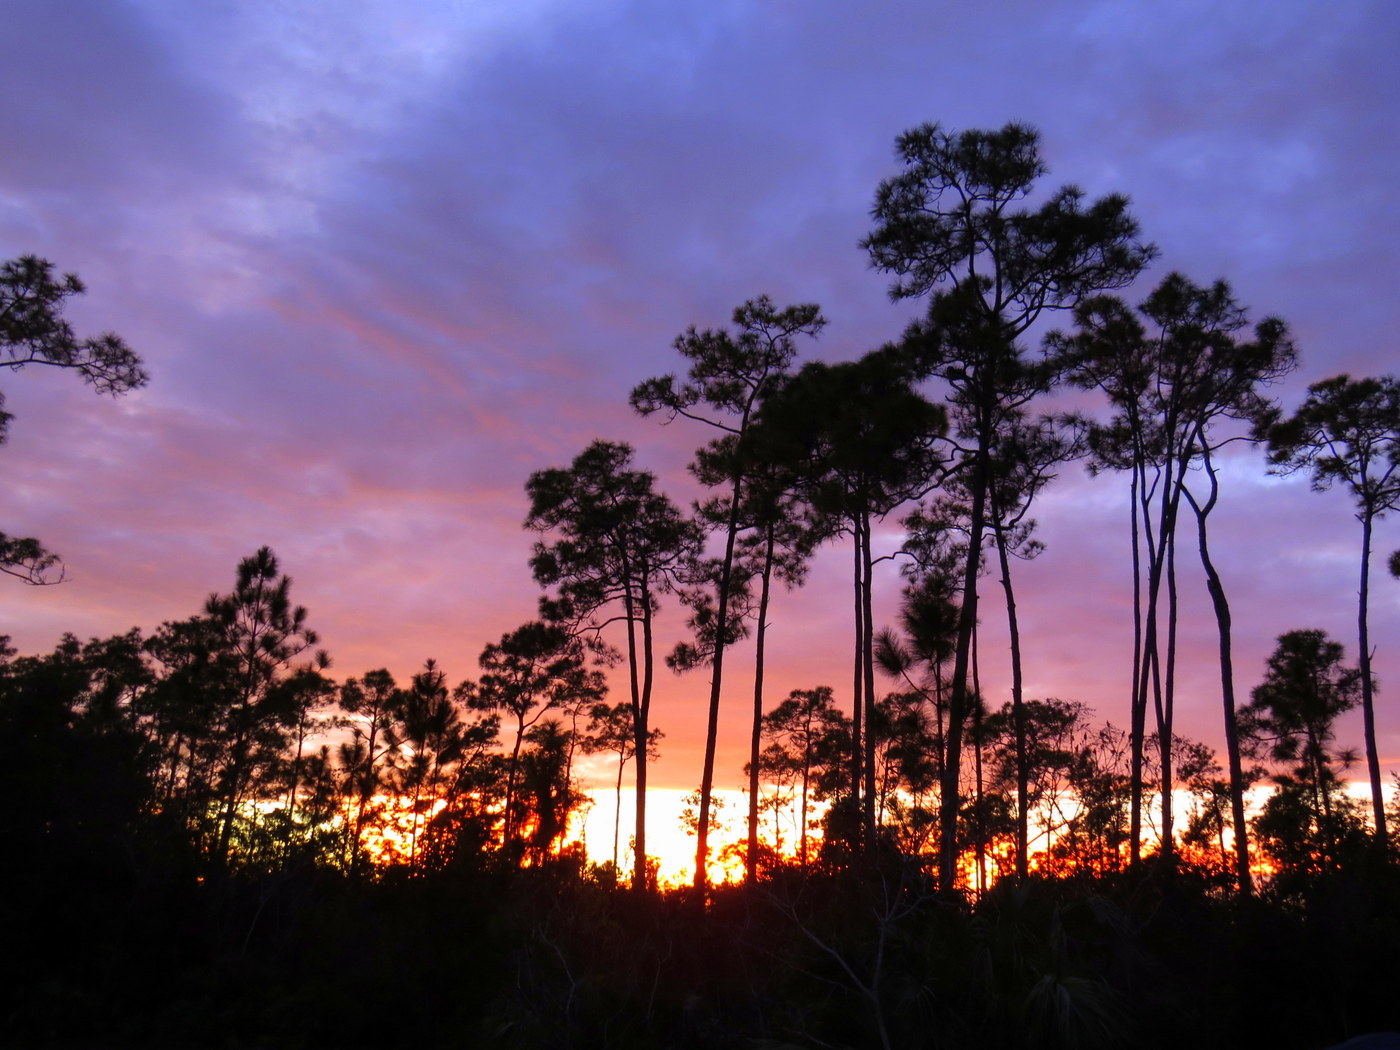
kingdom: Plantae
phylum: Tracheophyta
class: Pinopsida
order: Pinales
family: Pinaceae
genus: Pinus
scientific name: Pinus elliottii
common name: Slash pine
